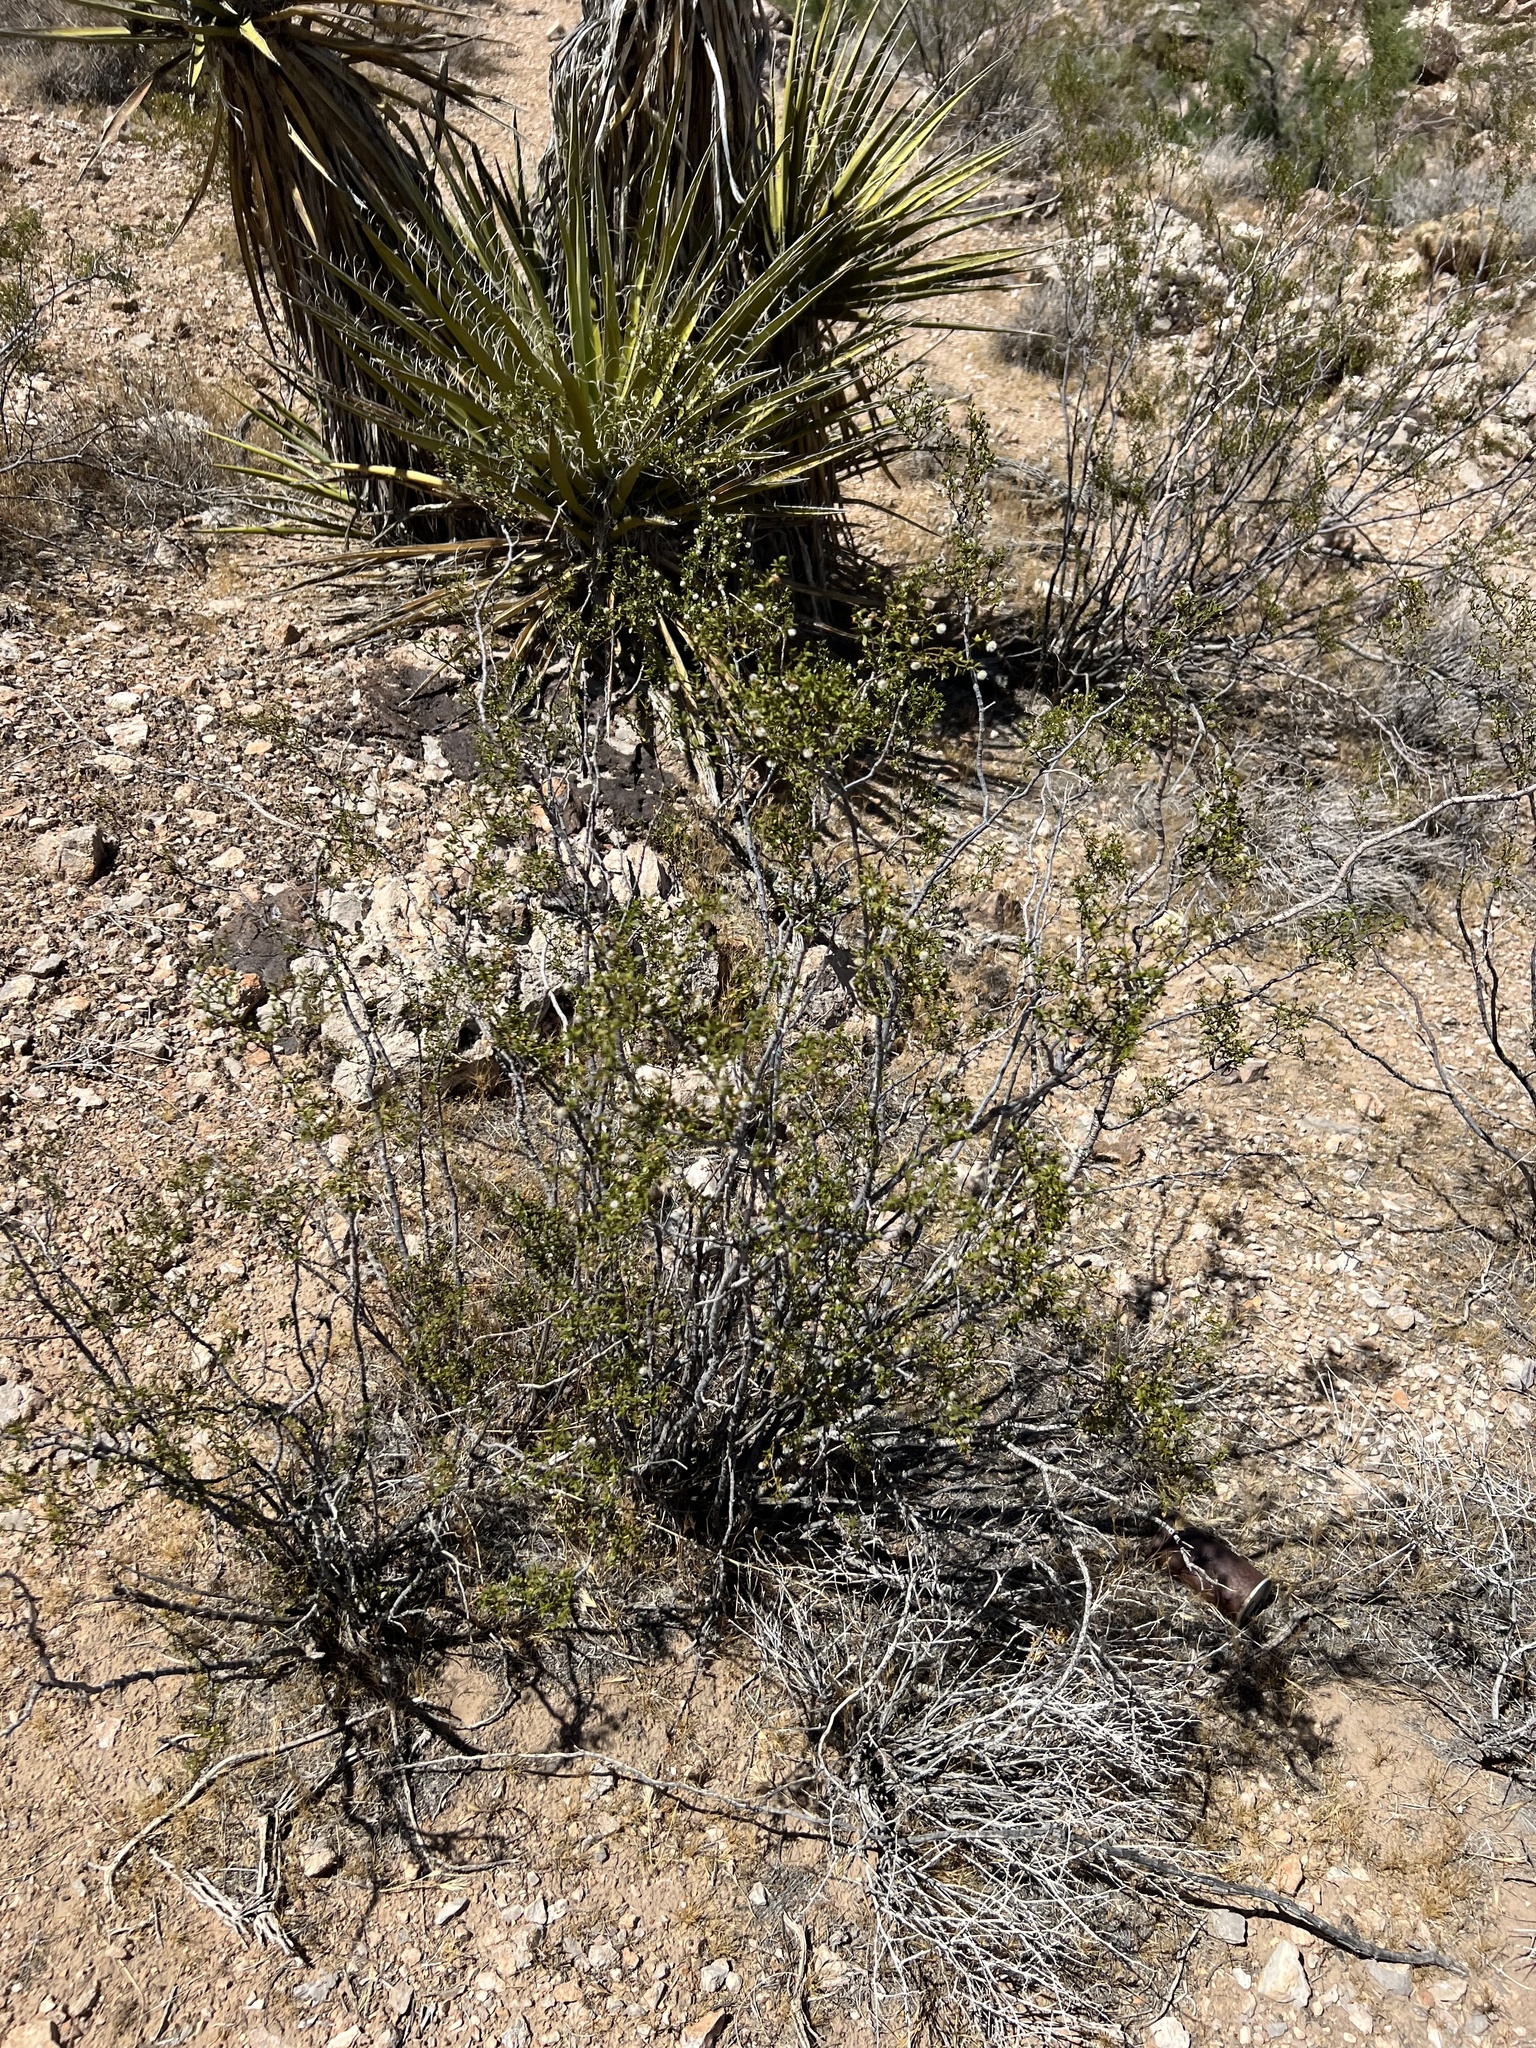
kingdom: Plantae
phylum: Tracheophyta
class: Magnoliopsida
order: Zygophyllales
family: Zygophyllaceae
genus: Larrea
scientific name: Larrea tridentata
